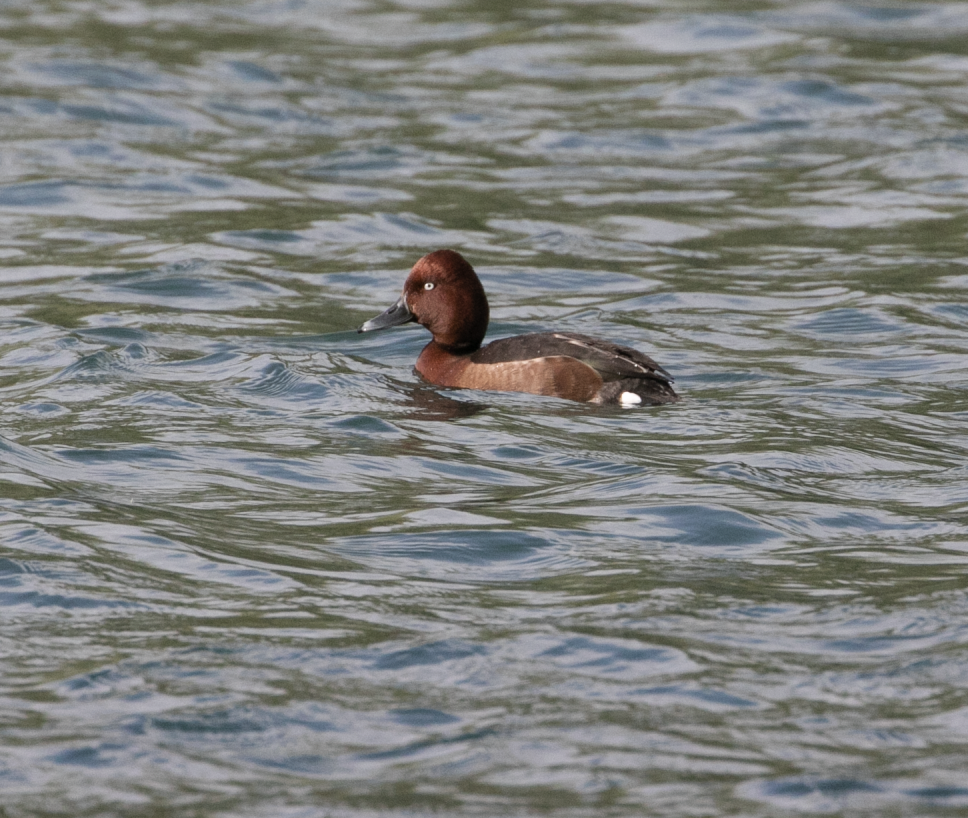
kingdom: Animalia
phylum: Chordata
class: Aves
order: Anseriformes
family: Anatidae
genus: Aythya
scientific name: Aythya nyroca
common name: Ferruginous duck
